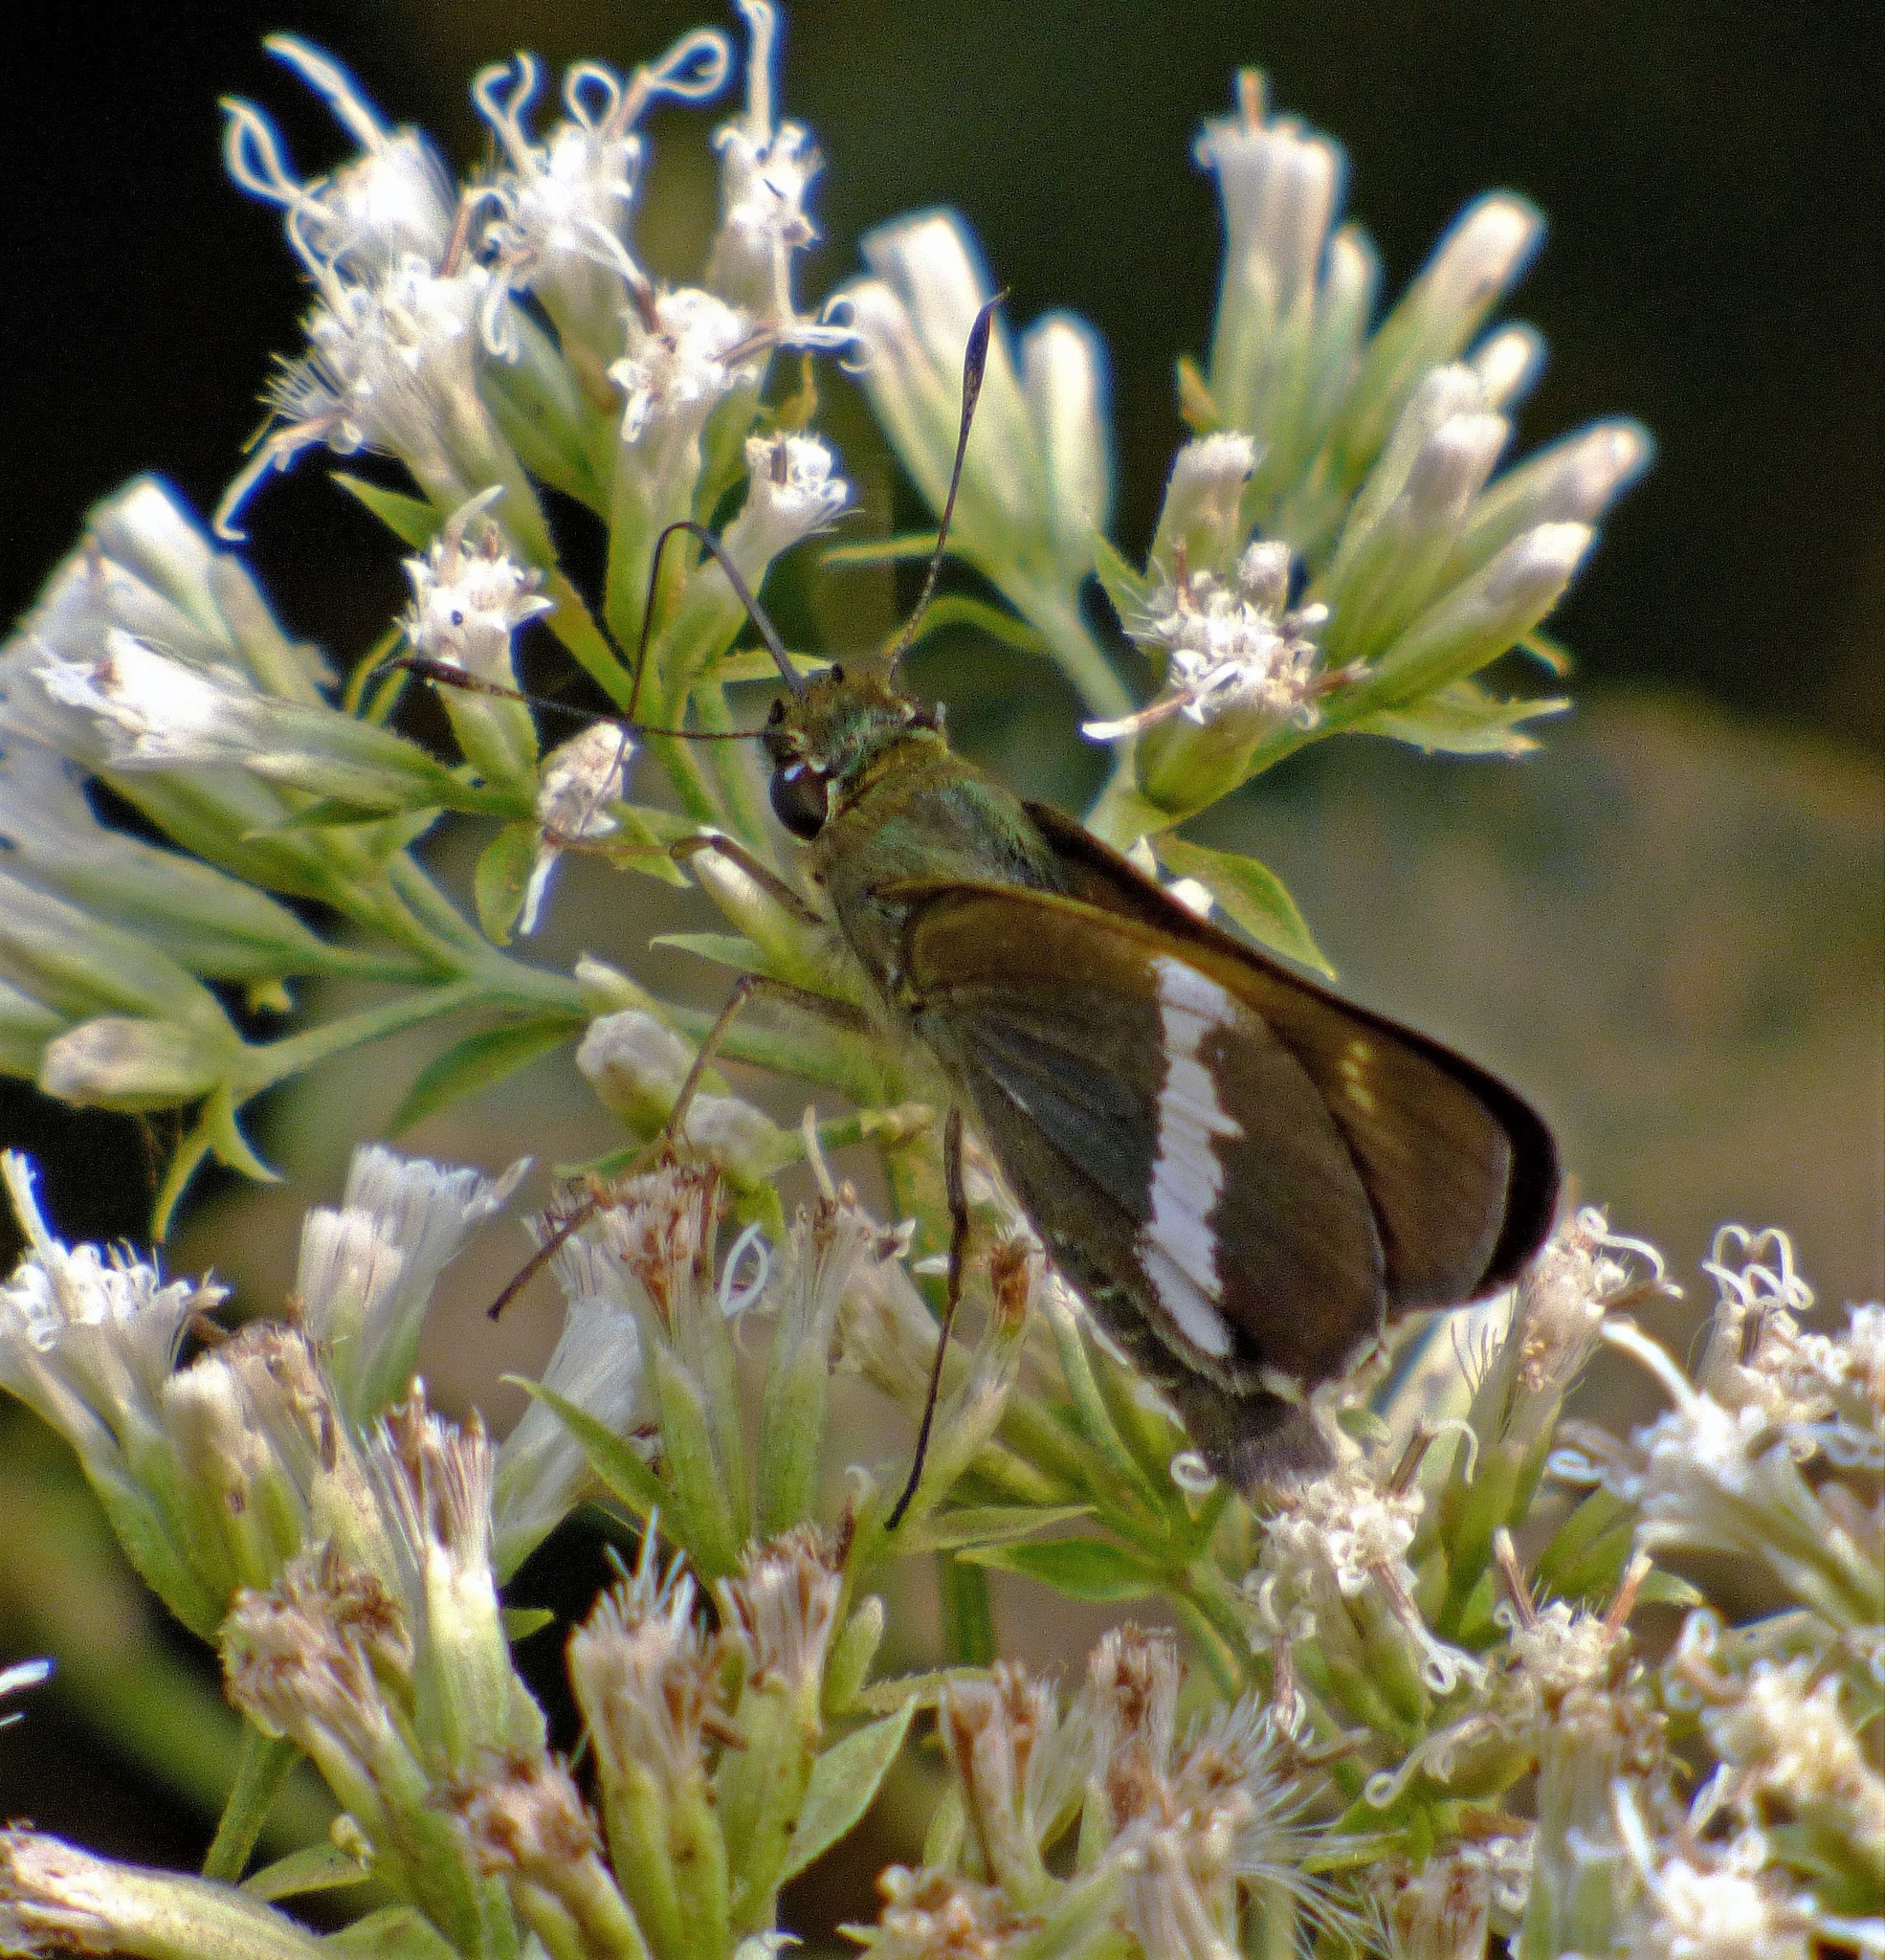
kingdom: Animalia
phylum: Arthropoda
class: Insecta
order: Lepidoptera
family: Hesperiidae
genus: Tirynthia
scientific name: Tirynthia conflua
